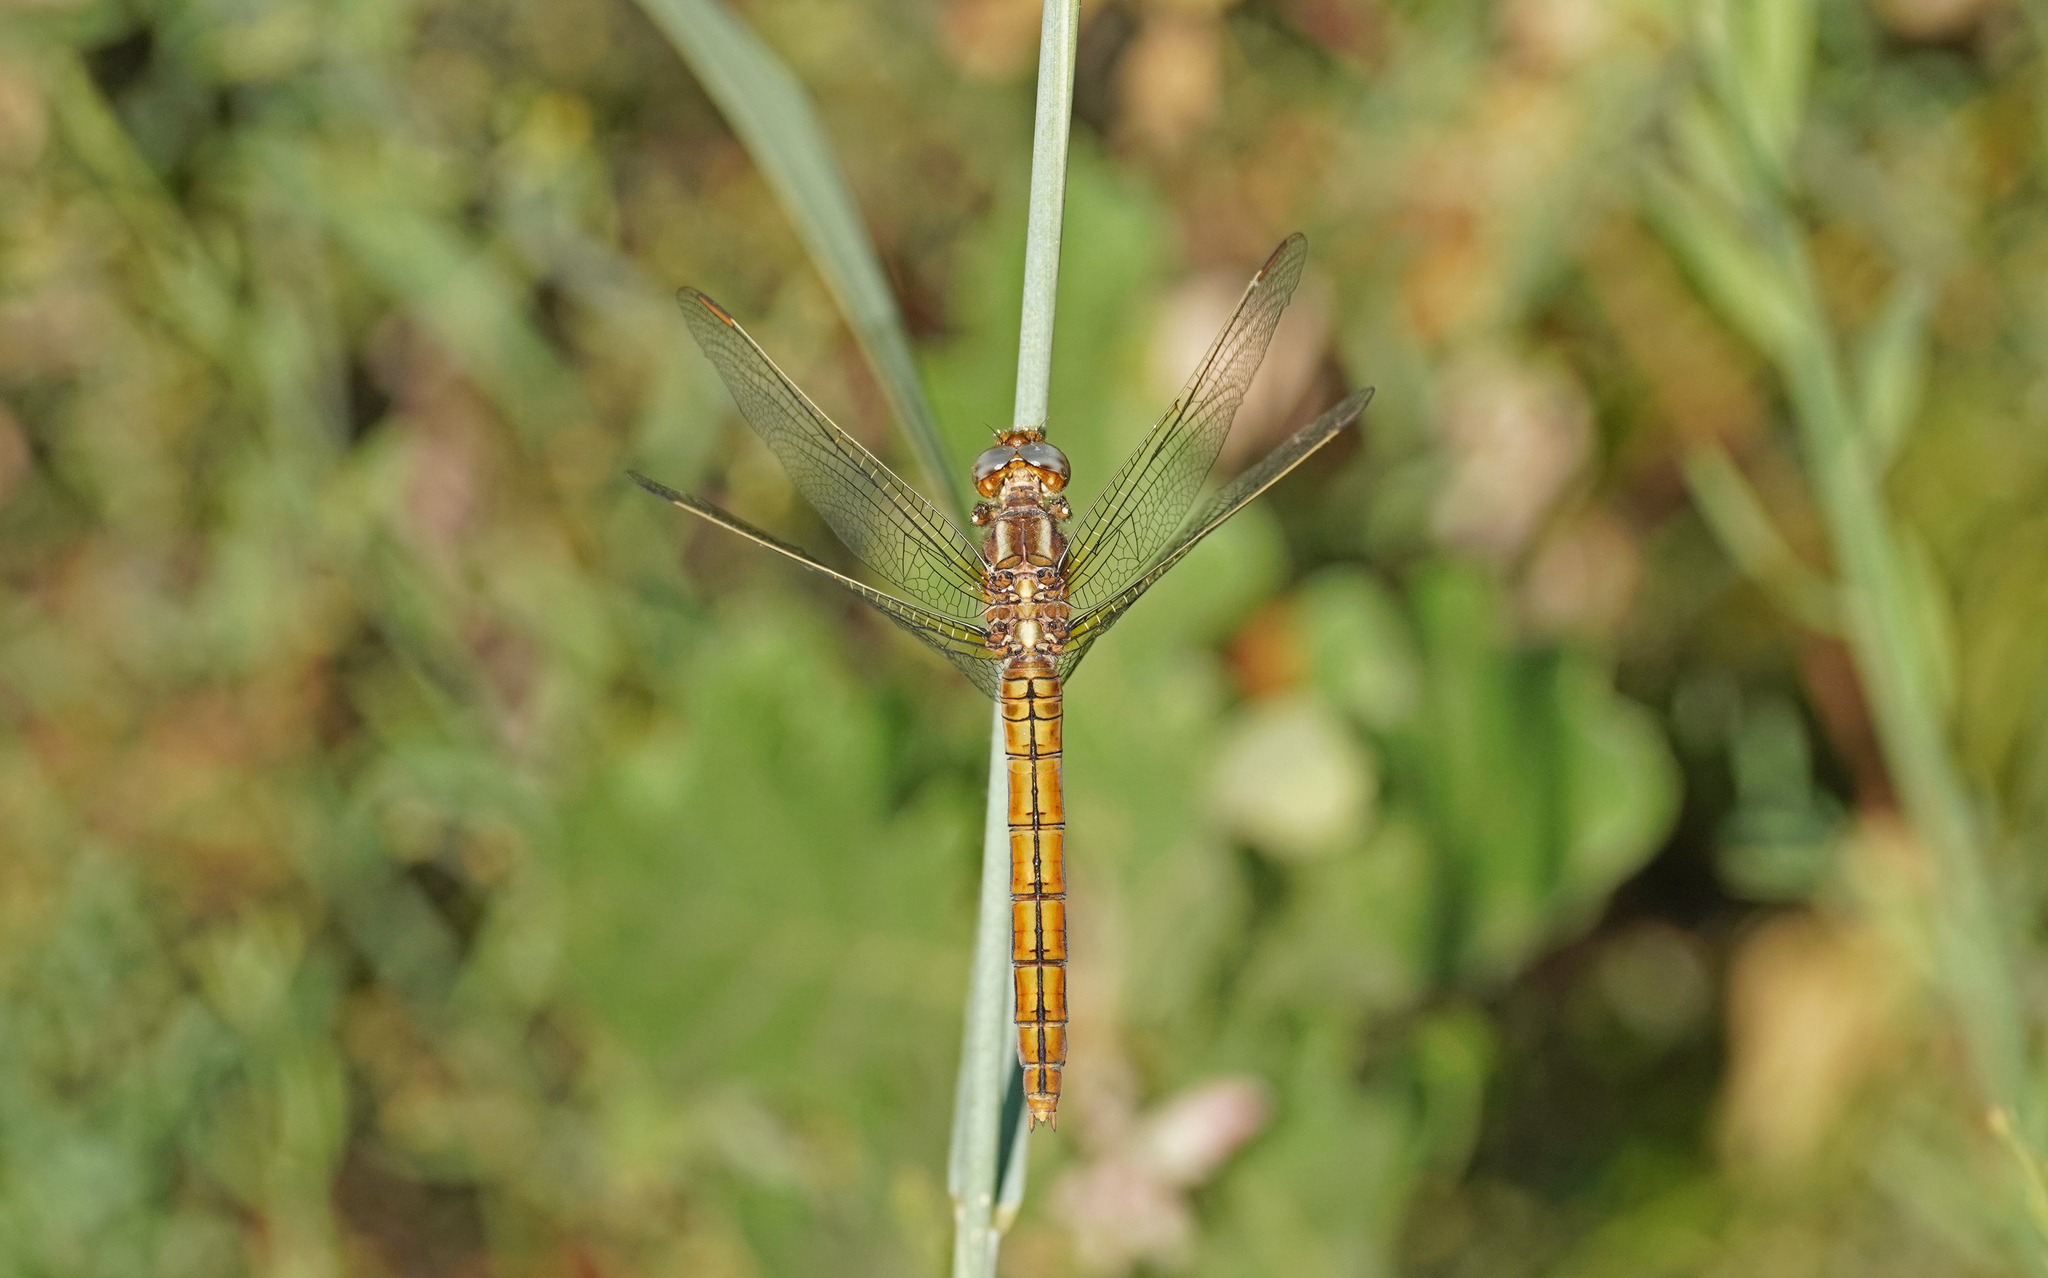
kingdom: Animalia
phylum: Arthropoda
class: Insecta
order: Odonata
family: Libellulidae
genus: Orthetrum
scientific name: Orthetrum coerulescens
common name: Keeled skimmer
